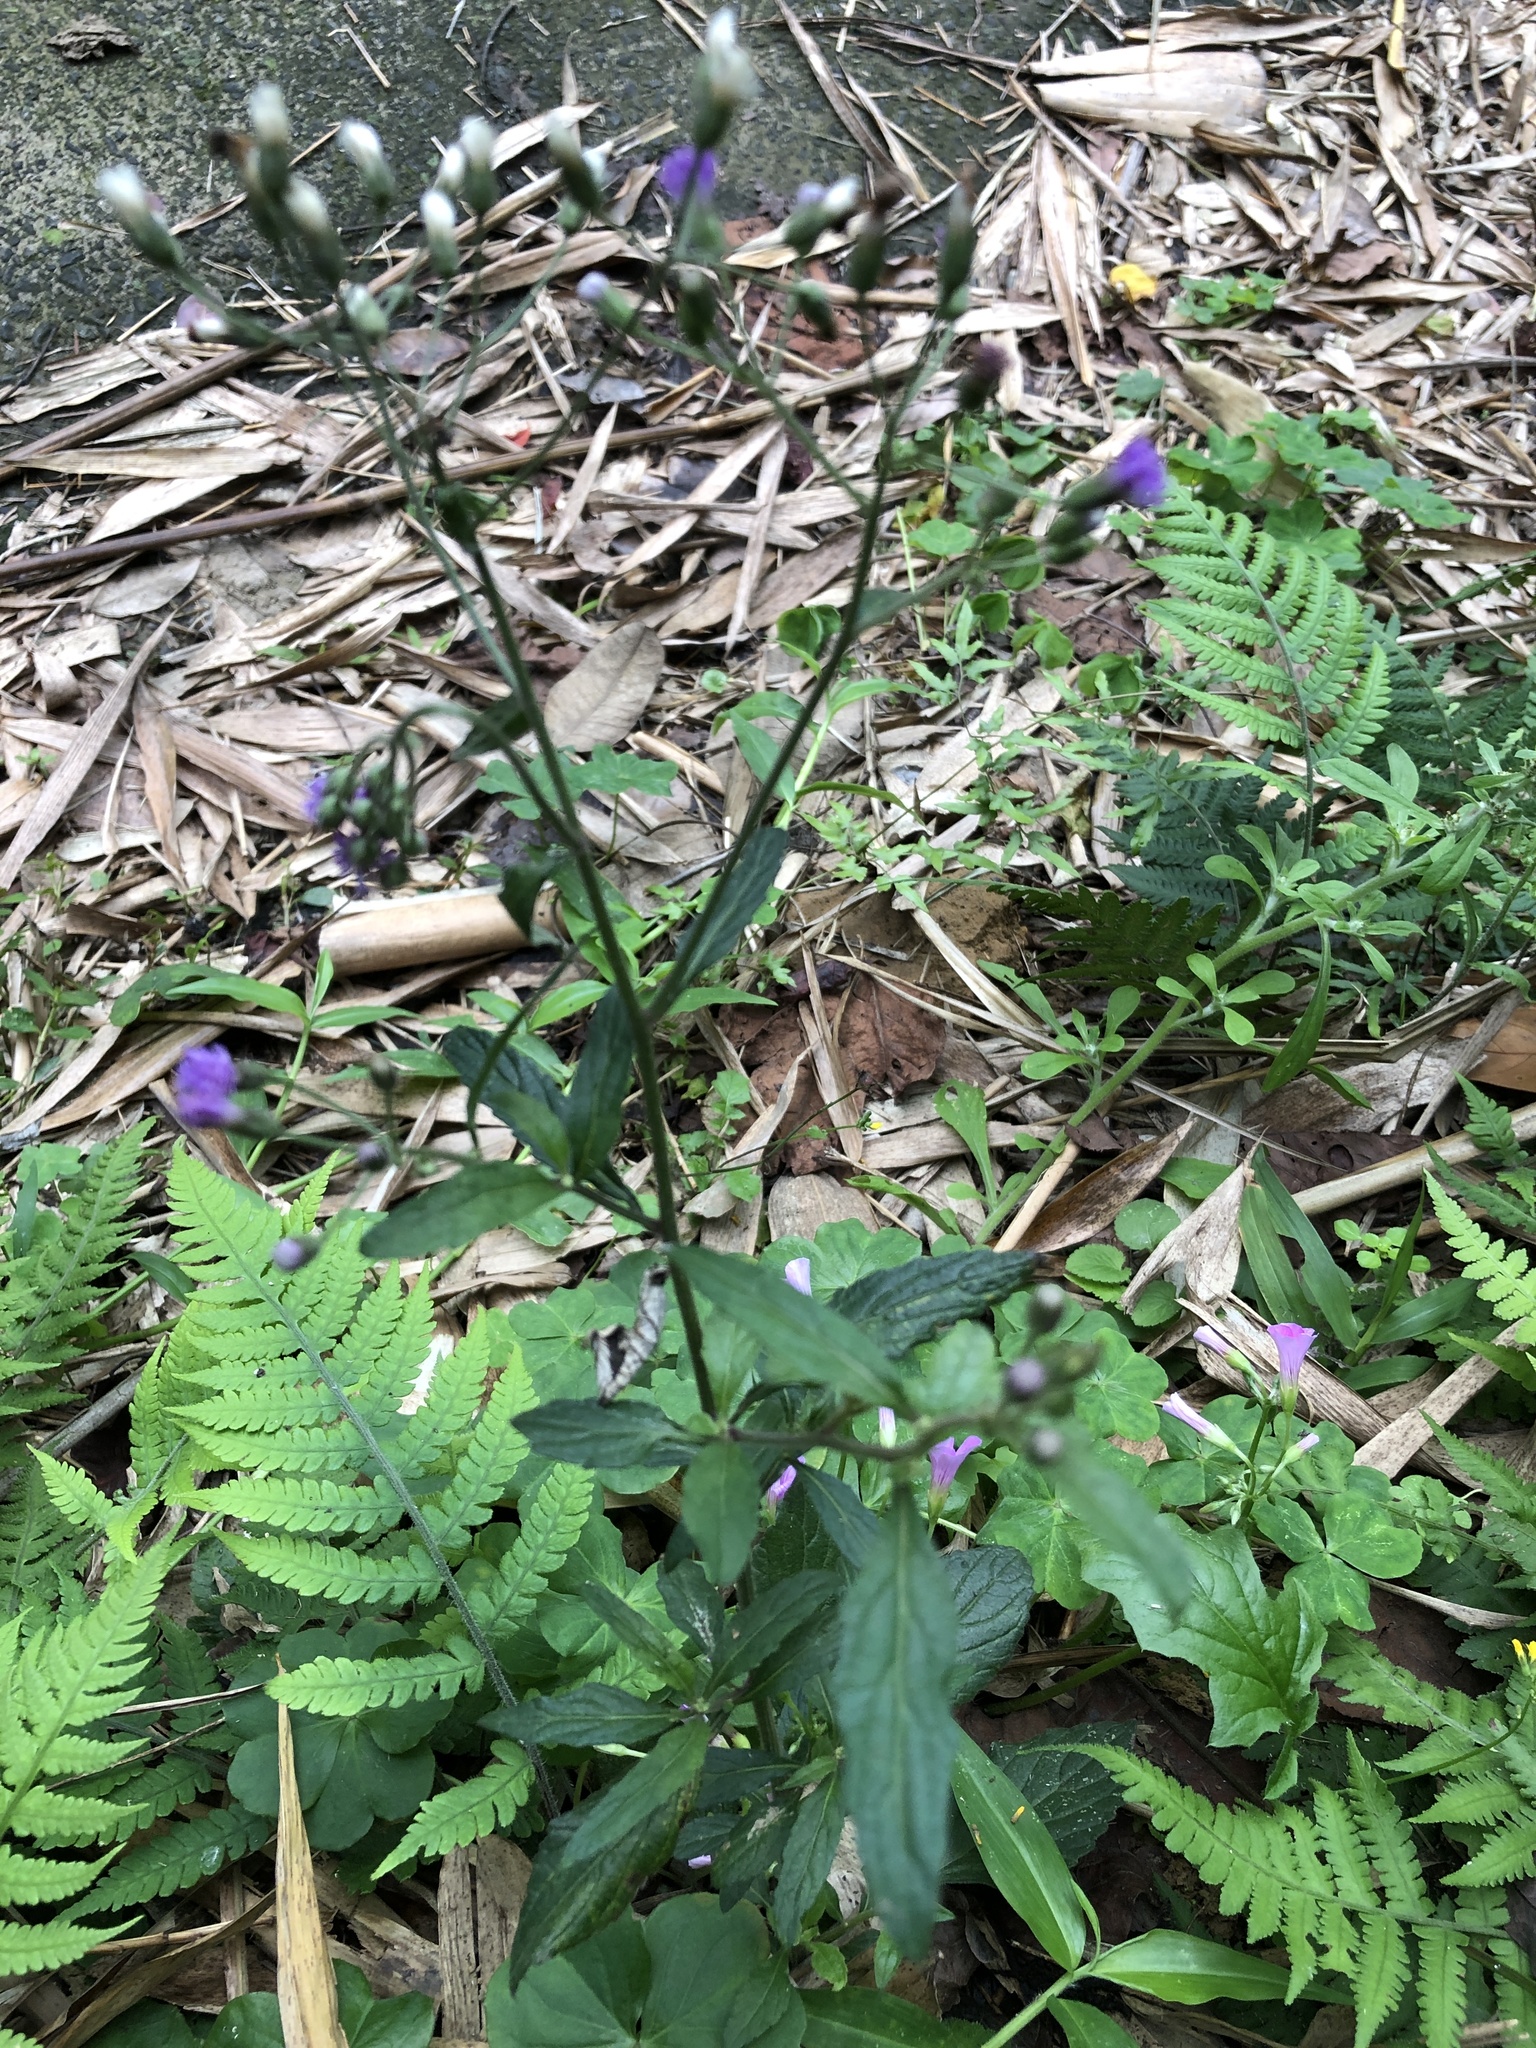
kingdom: Plantae
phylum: Tracheophyta
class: Magnoliopsida
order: Asterales
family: Asteraceae
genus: Cyanthillium
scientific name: Cyanthillium cinereum
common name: Little ironweed
